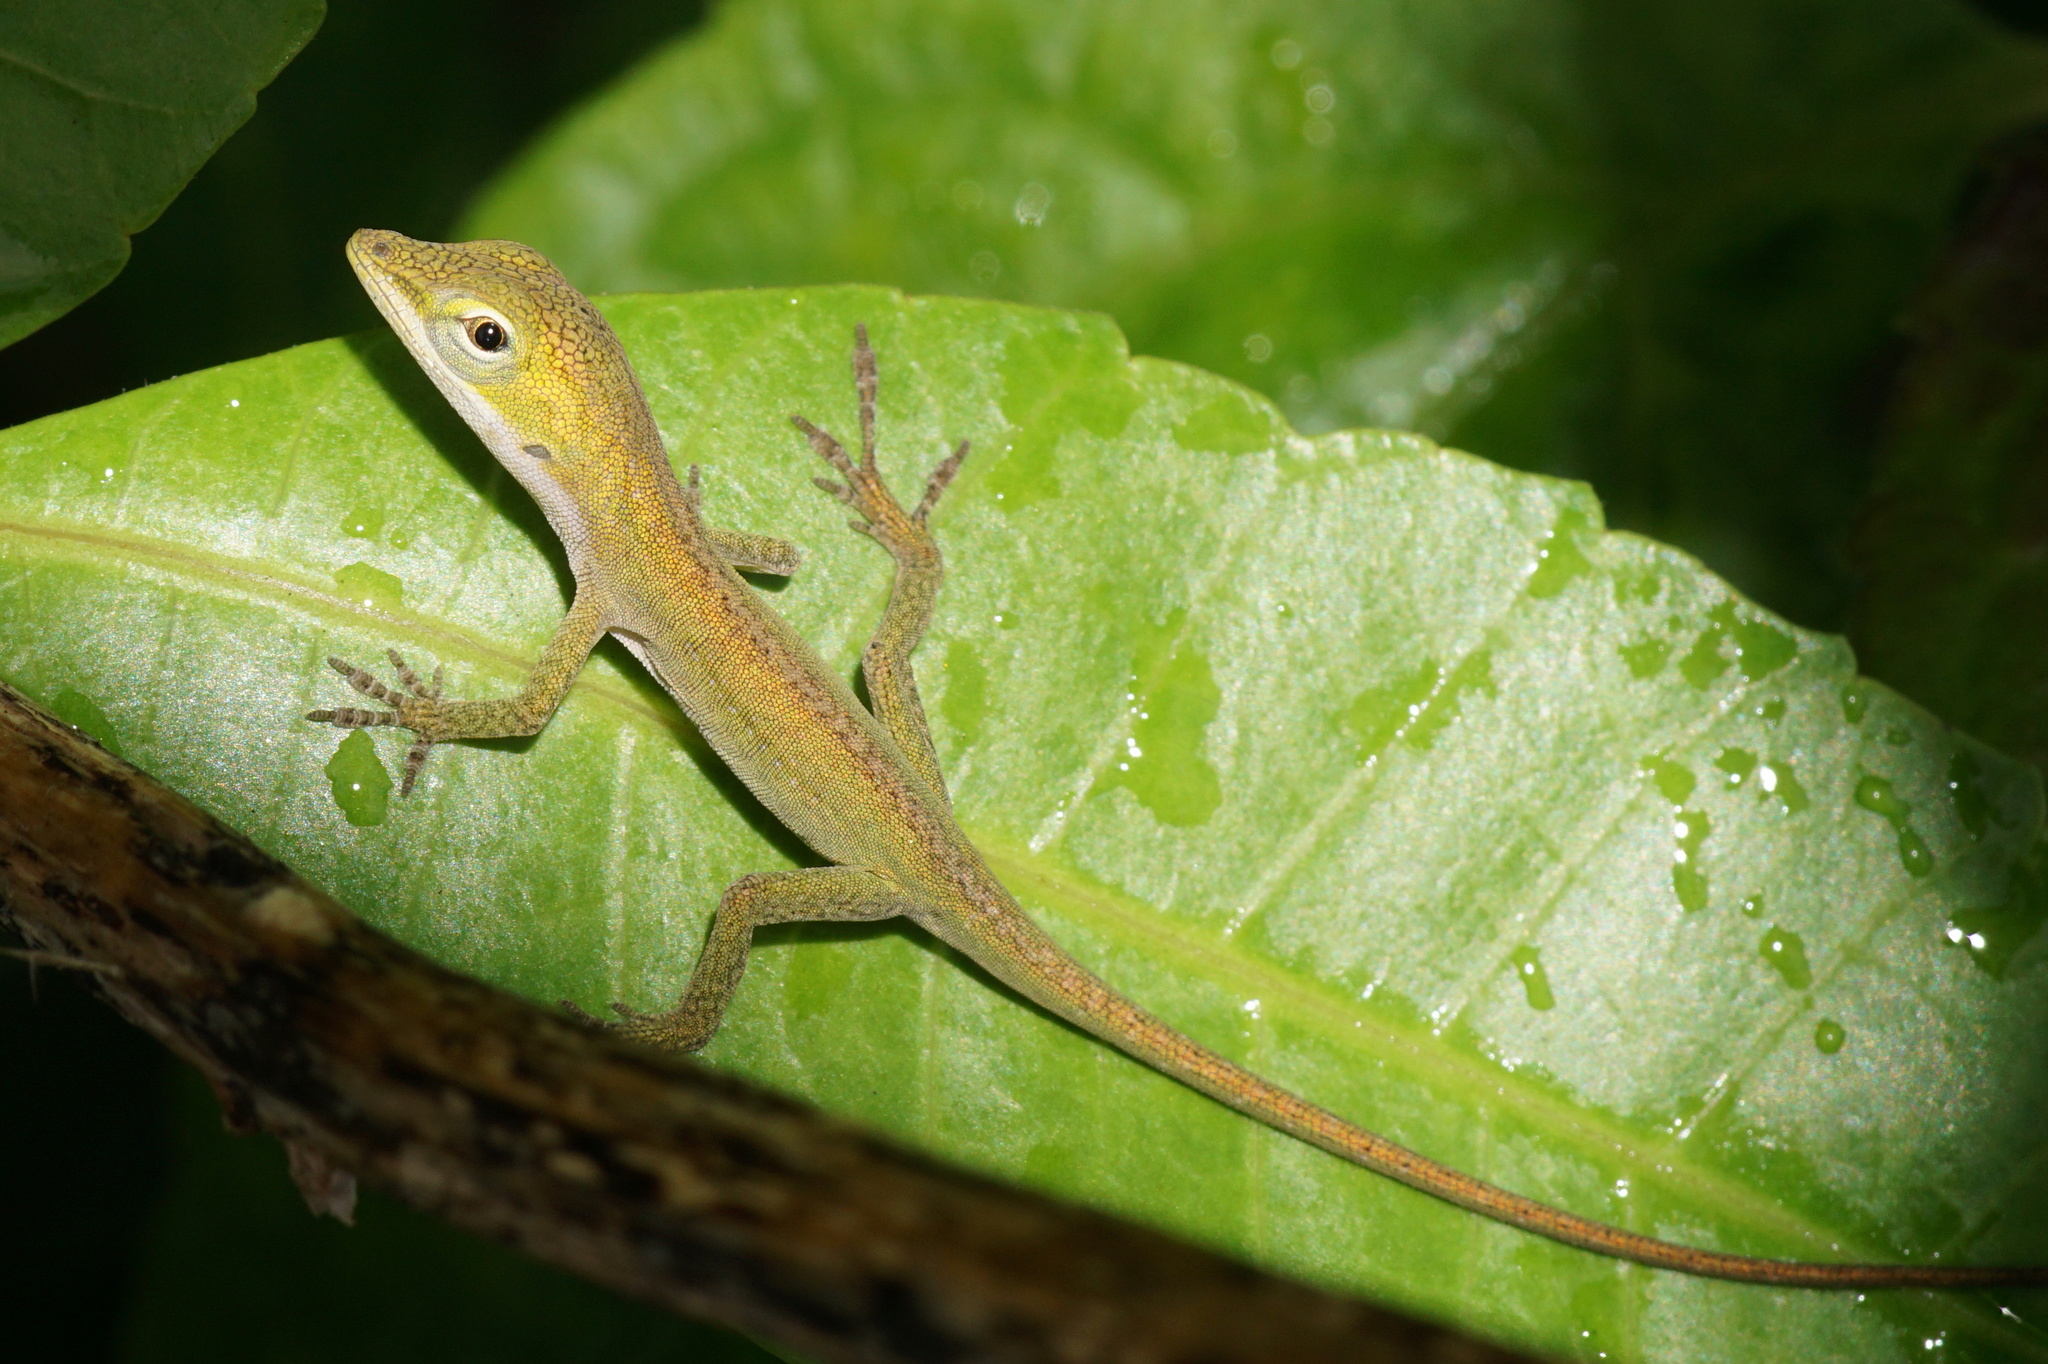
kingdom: Animalia
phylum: Chordata
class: Squamata
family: Dactyloidae
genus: Anolis
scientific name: Anolis carolinensis
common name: Green anole
